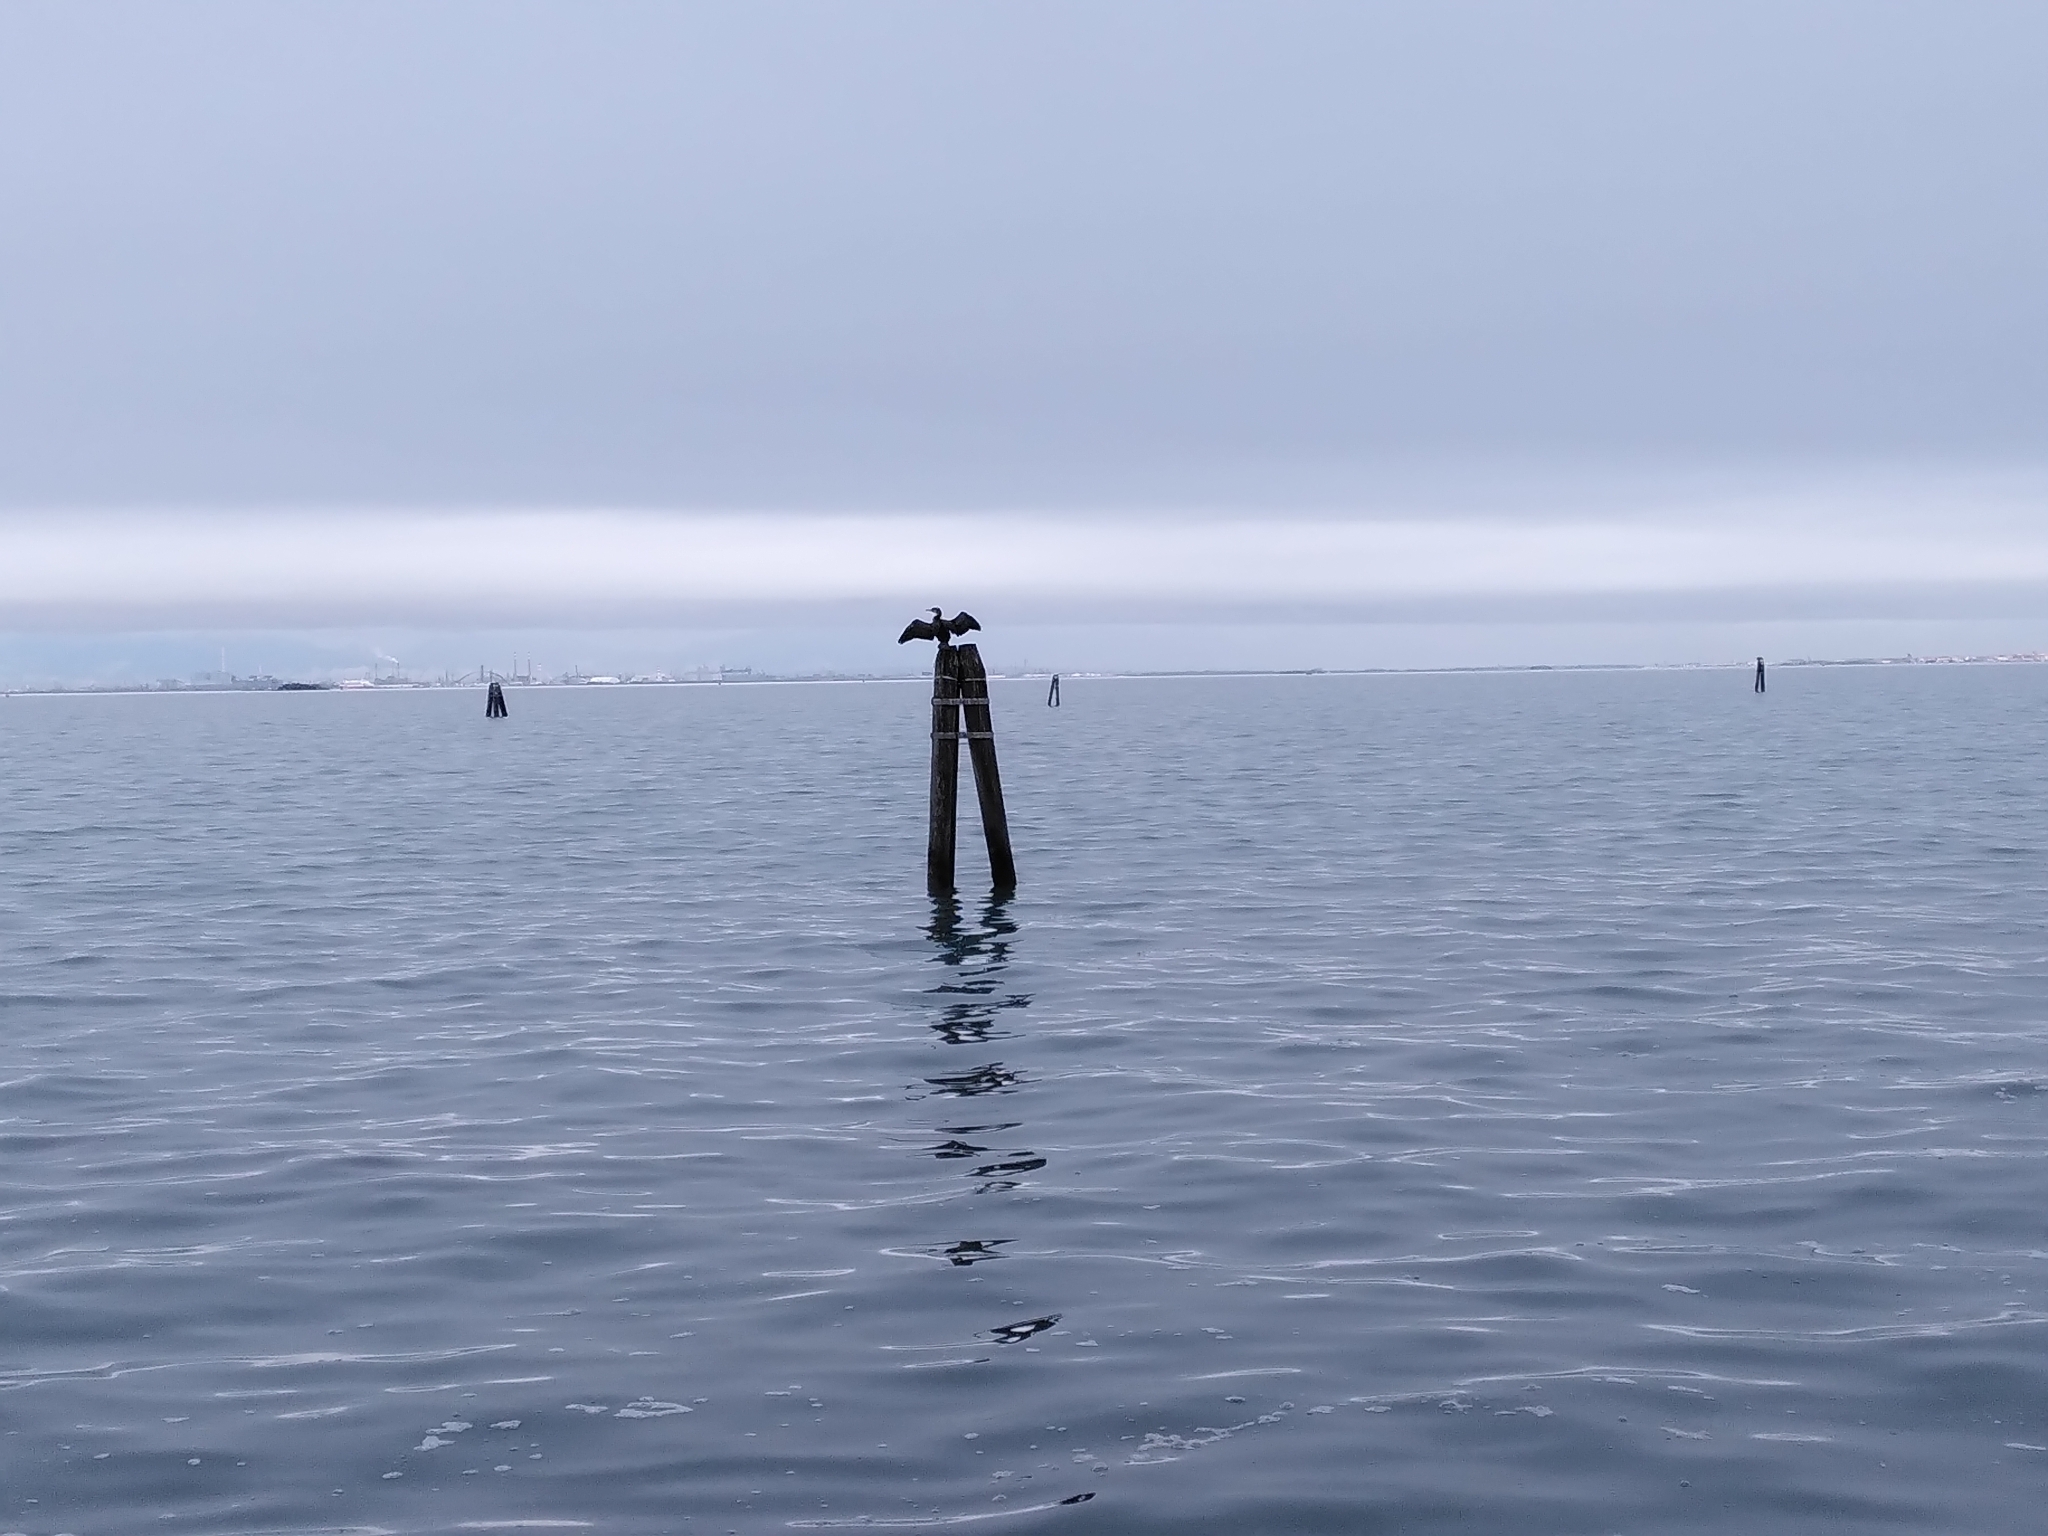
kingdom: Animalia
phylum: Chordata
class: Aves
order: Suliformes
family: Phalacrocoracidae
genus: Phalacrocorax
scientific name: Phalacrocorax carbo
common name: Great cormorant
